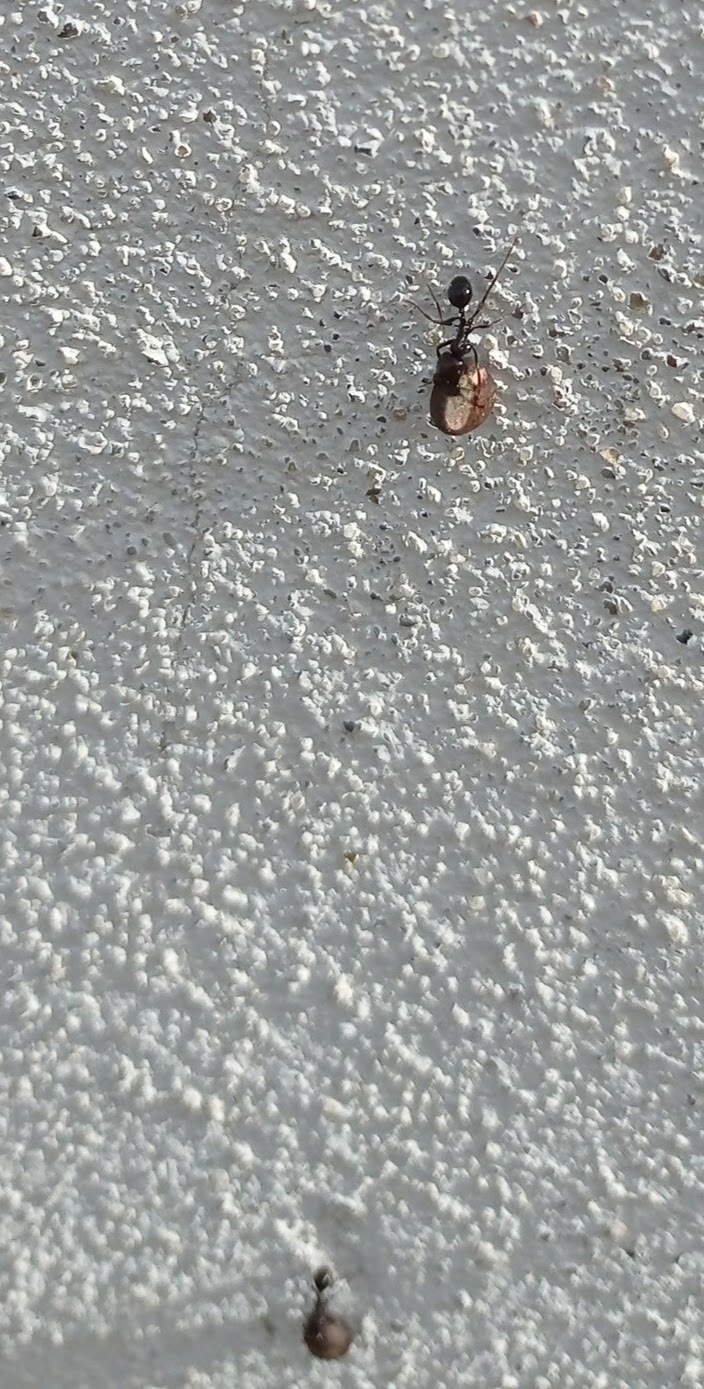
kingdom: Animalia
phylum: Arthropoda
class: Insecta
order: Hymenoptera
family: Formicidae
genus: Messor
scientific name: Messor barbarus
